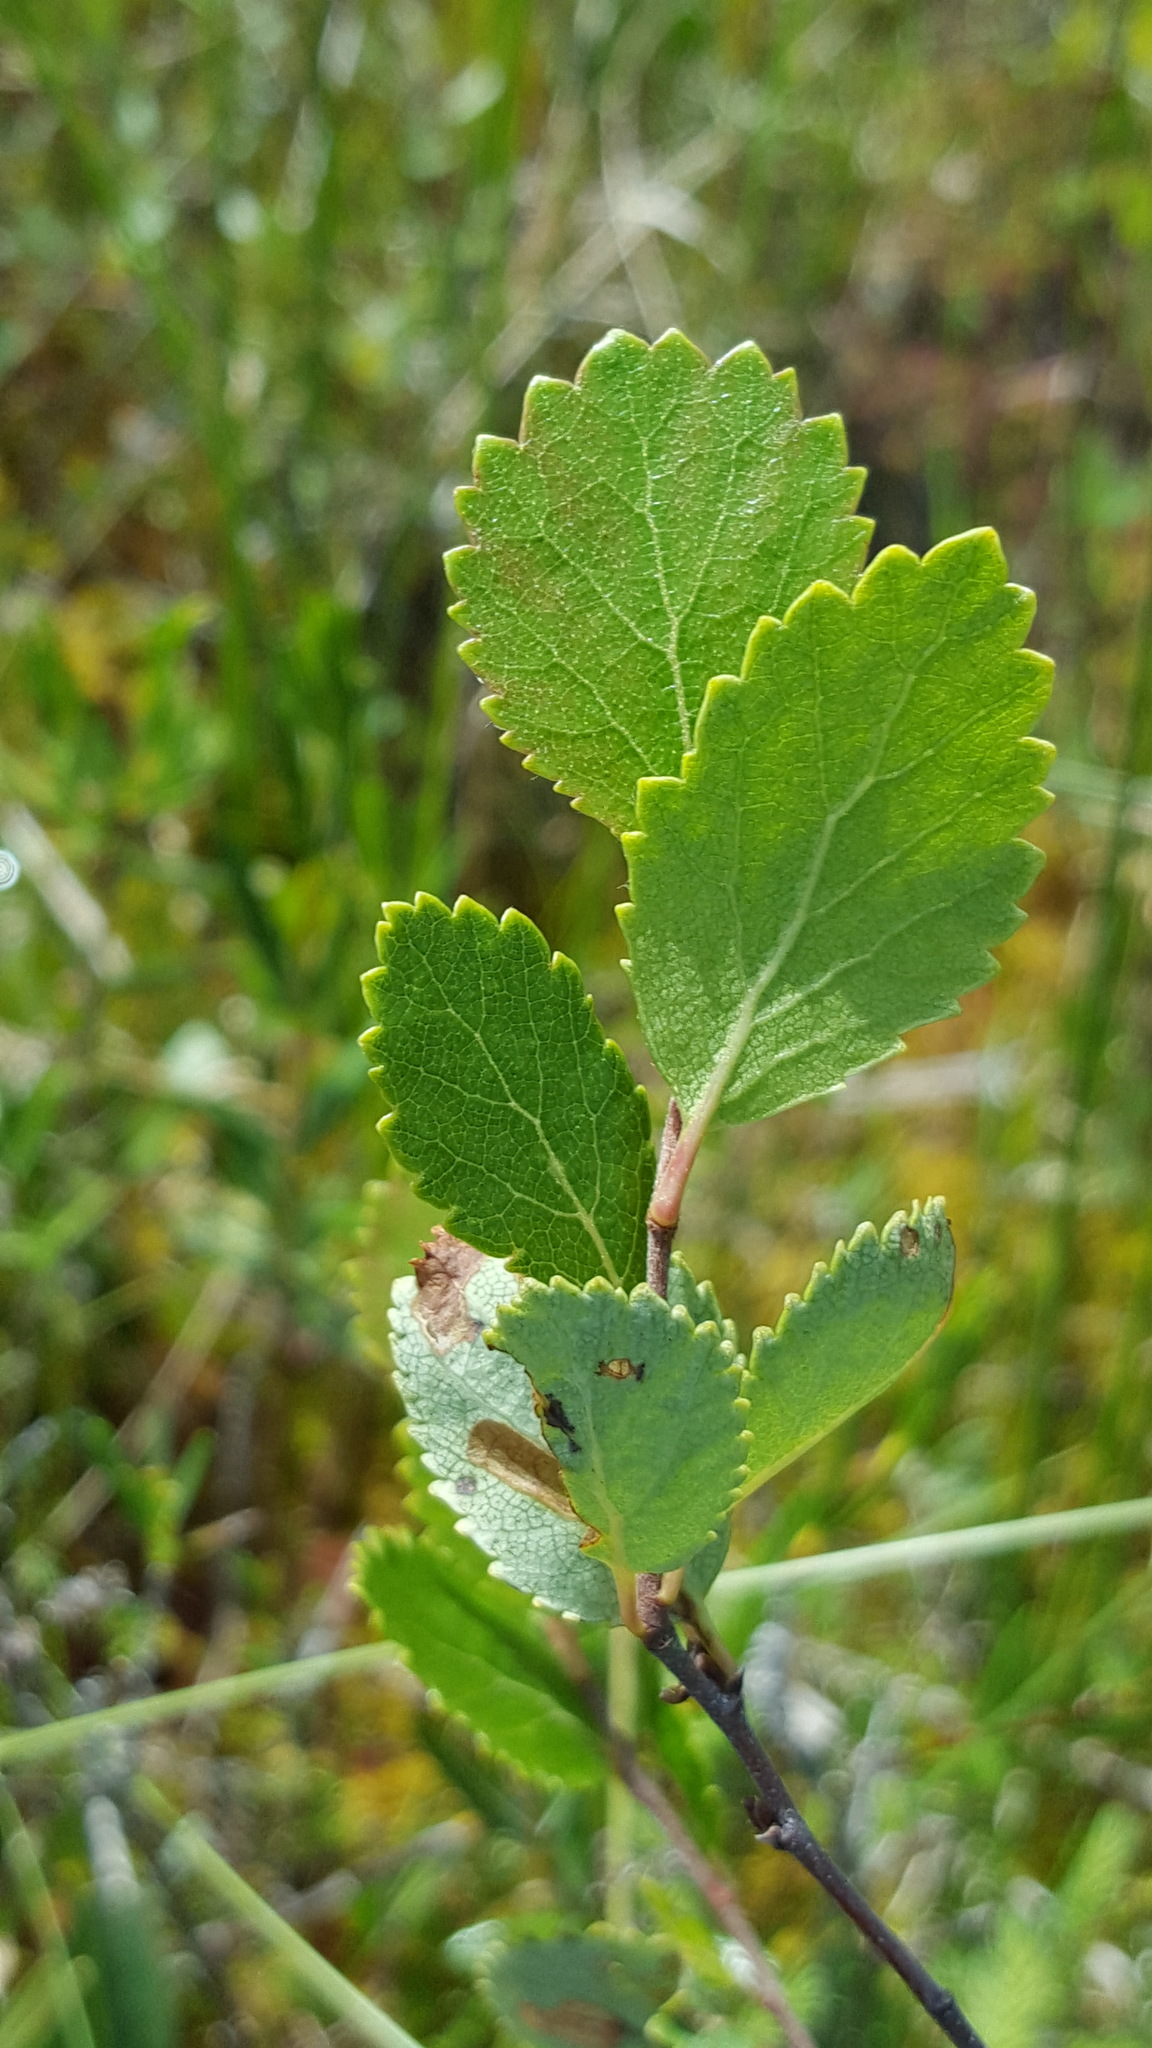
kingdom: Plantae
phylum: Tracheophyta
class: Magnoliopsida
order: Fagales
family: Betulaceae
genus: Betula
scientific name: Betula pumila
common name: Bog birch
